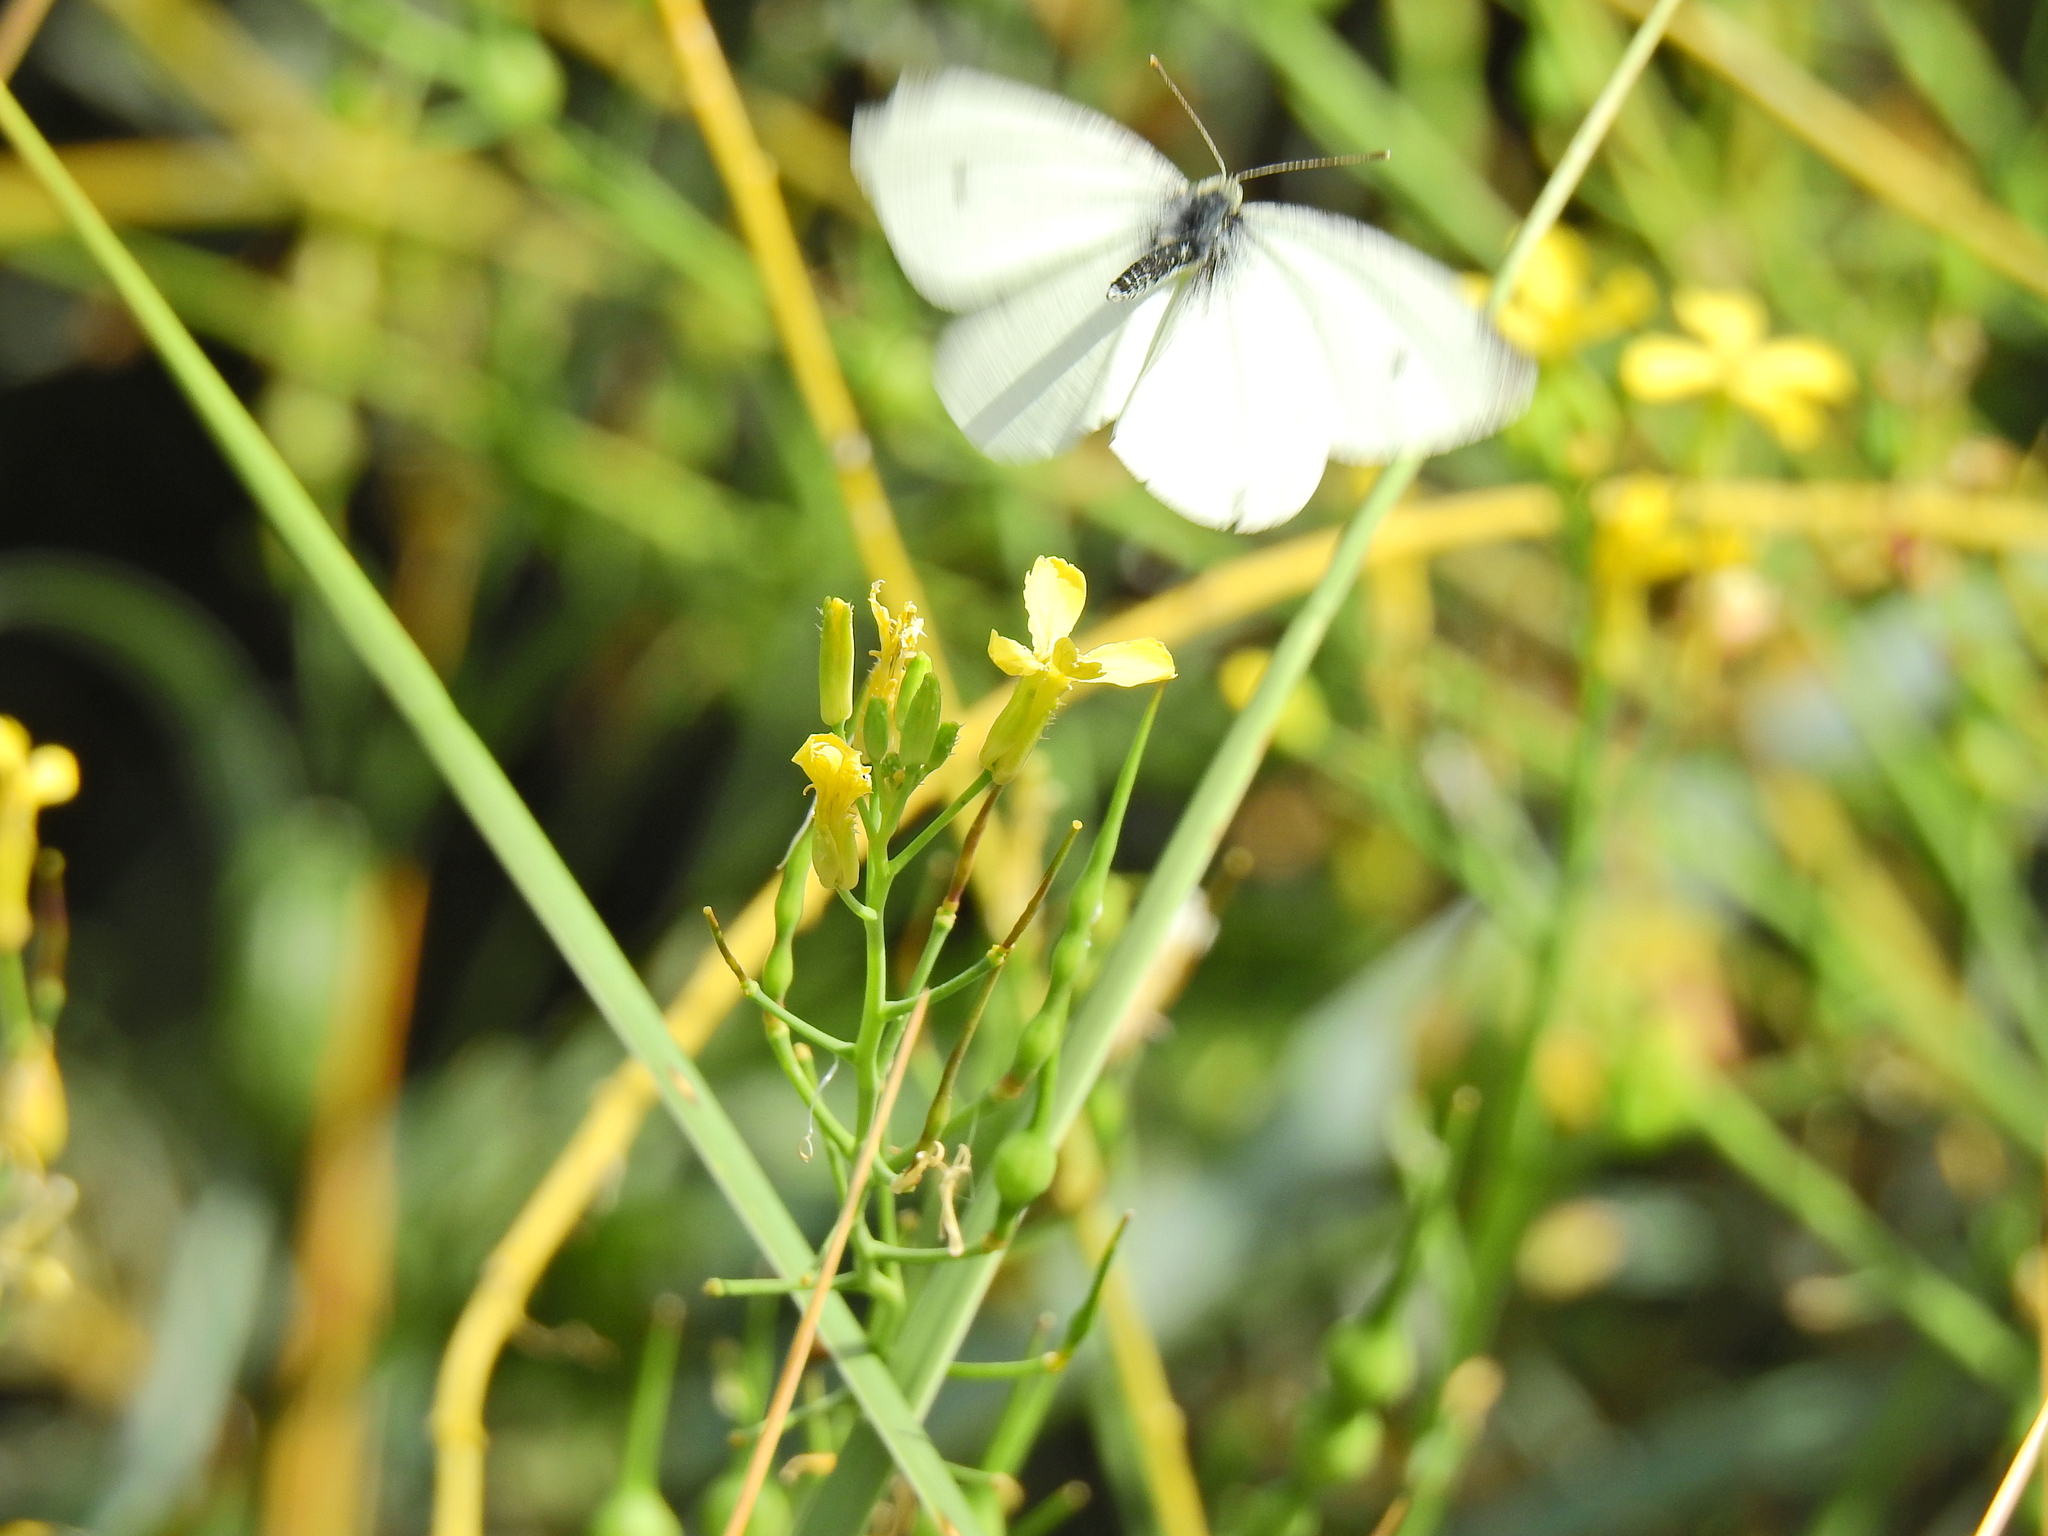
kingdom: Animalia
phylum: Arthropoda
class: Insecta
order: Lepidoptera
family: Pieridae
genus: Pieris
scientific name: Pieris rapae
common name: Small white
